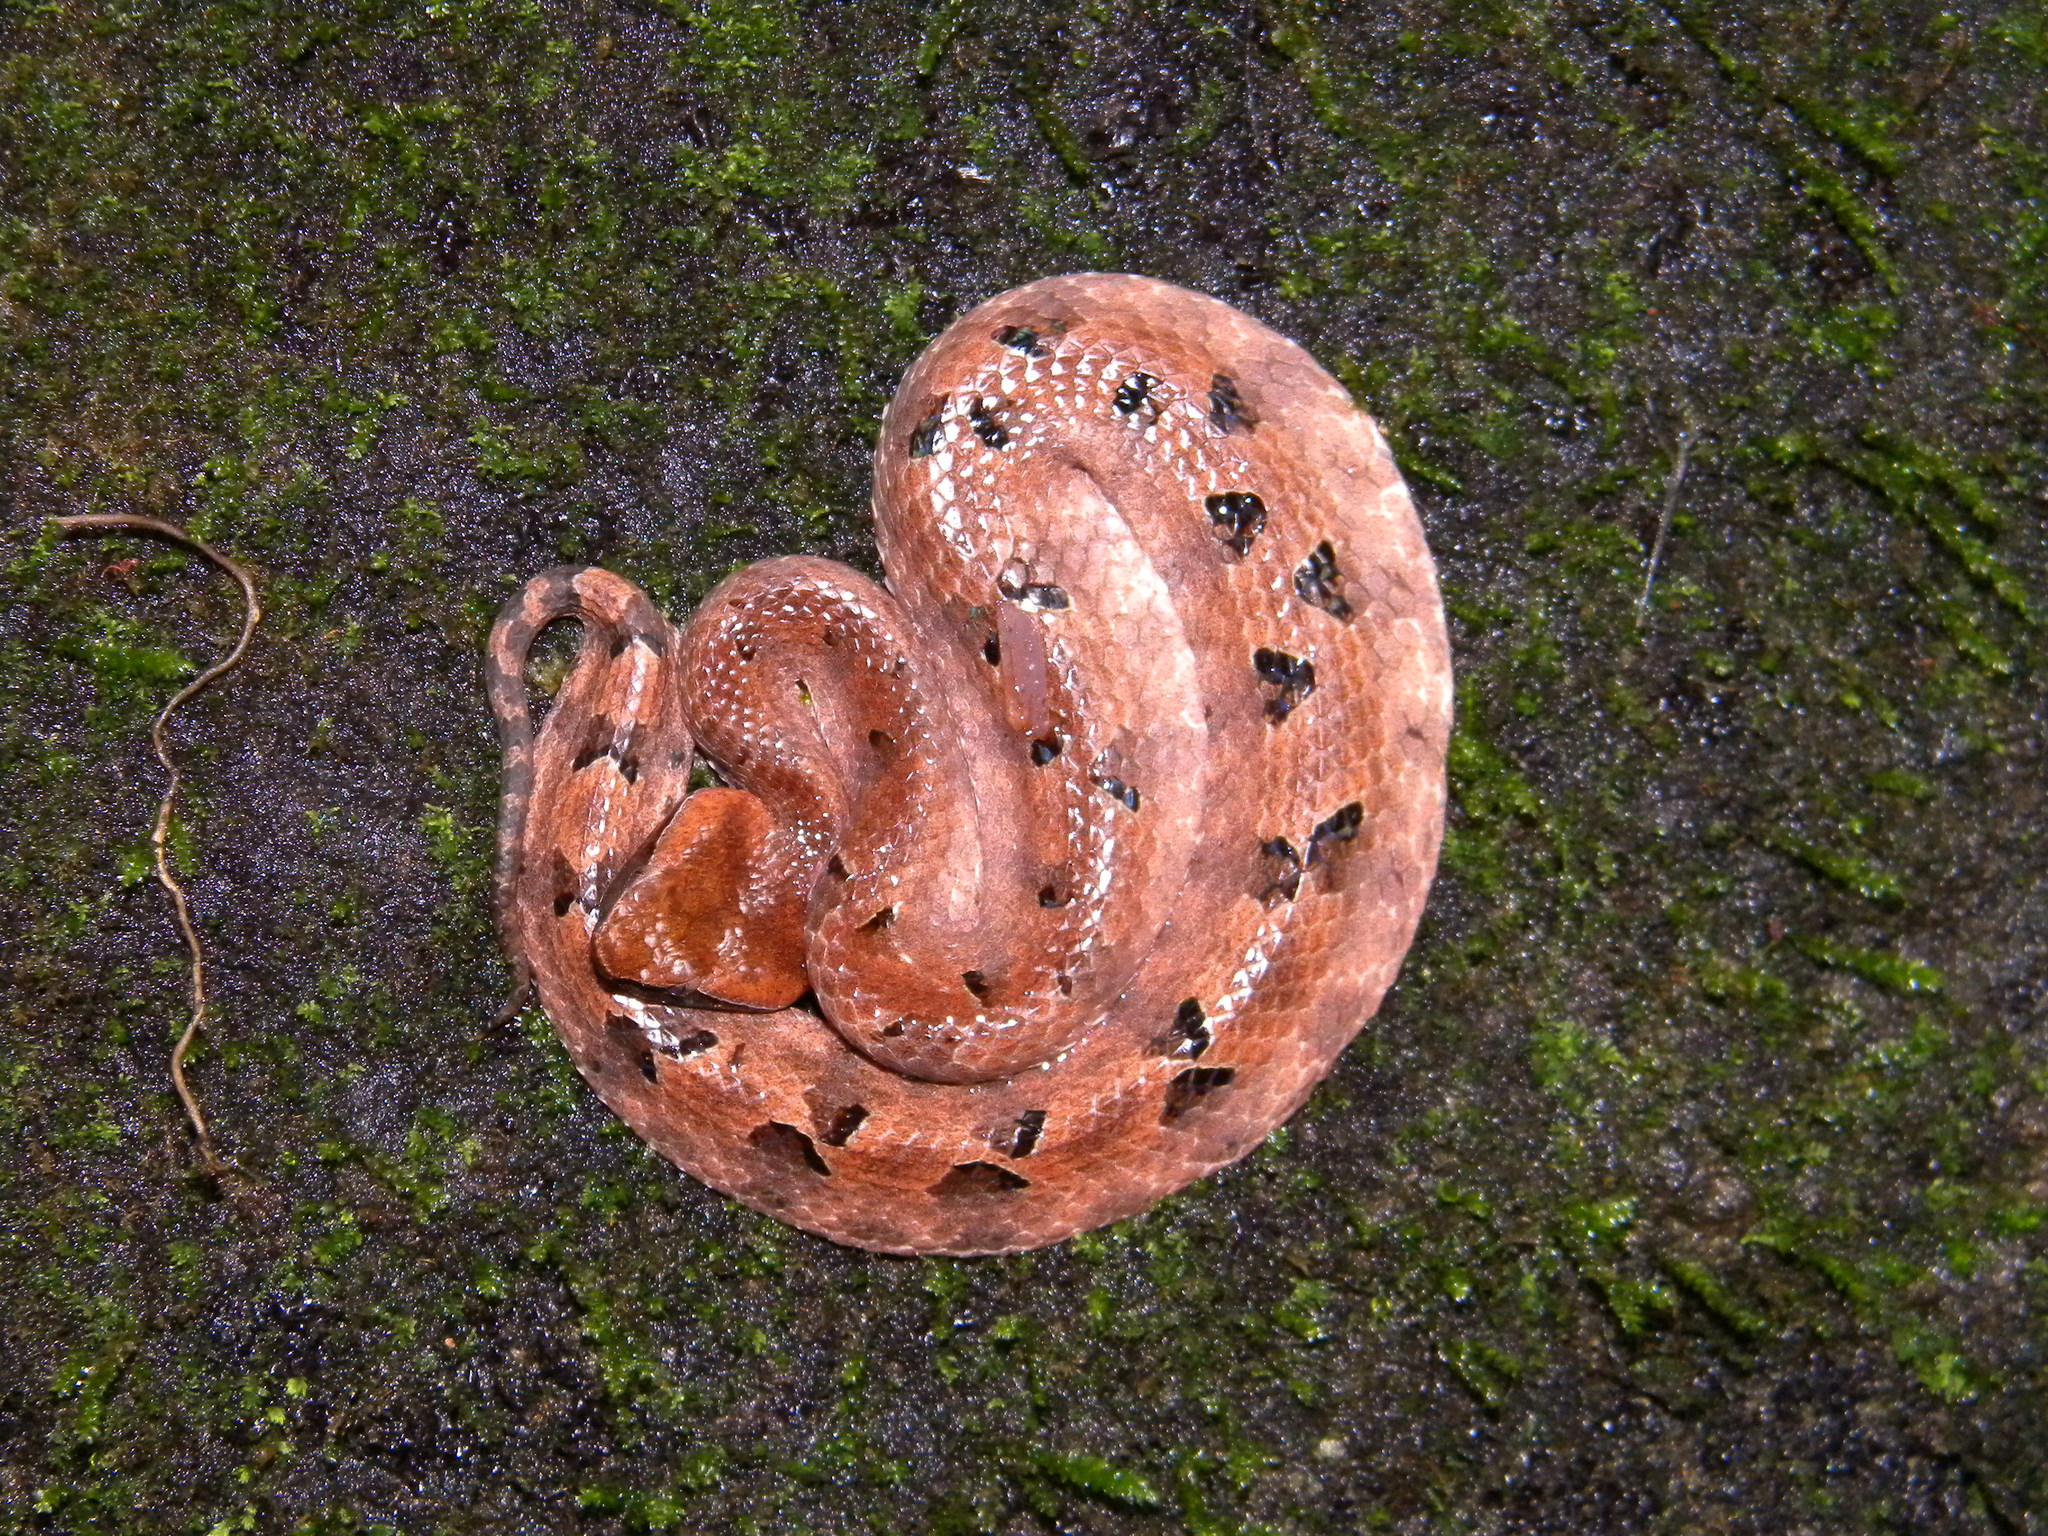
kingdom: Animalia
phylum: Chordata
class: Squamata
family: Viperidae
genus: Hypnale
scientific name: Hypnale hypnale
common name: Hump-nosed moccasin
